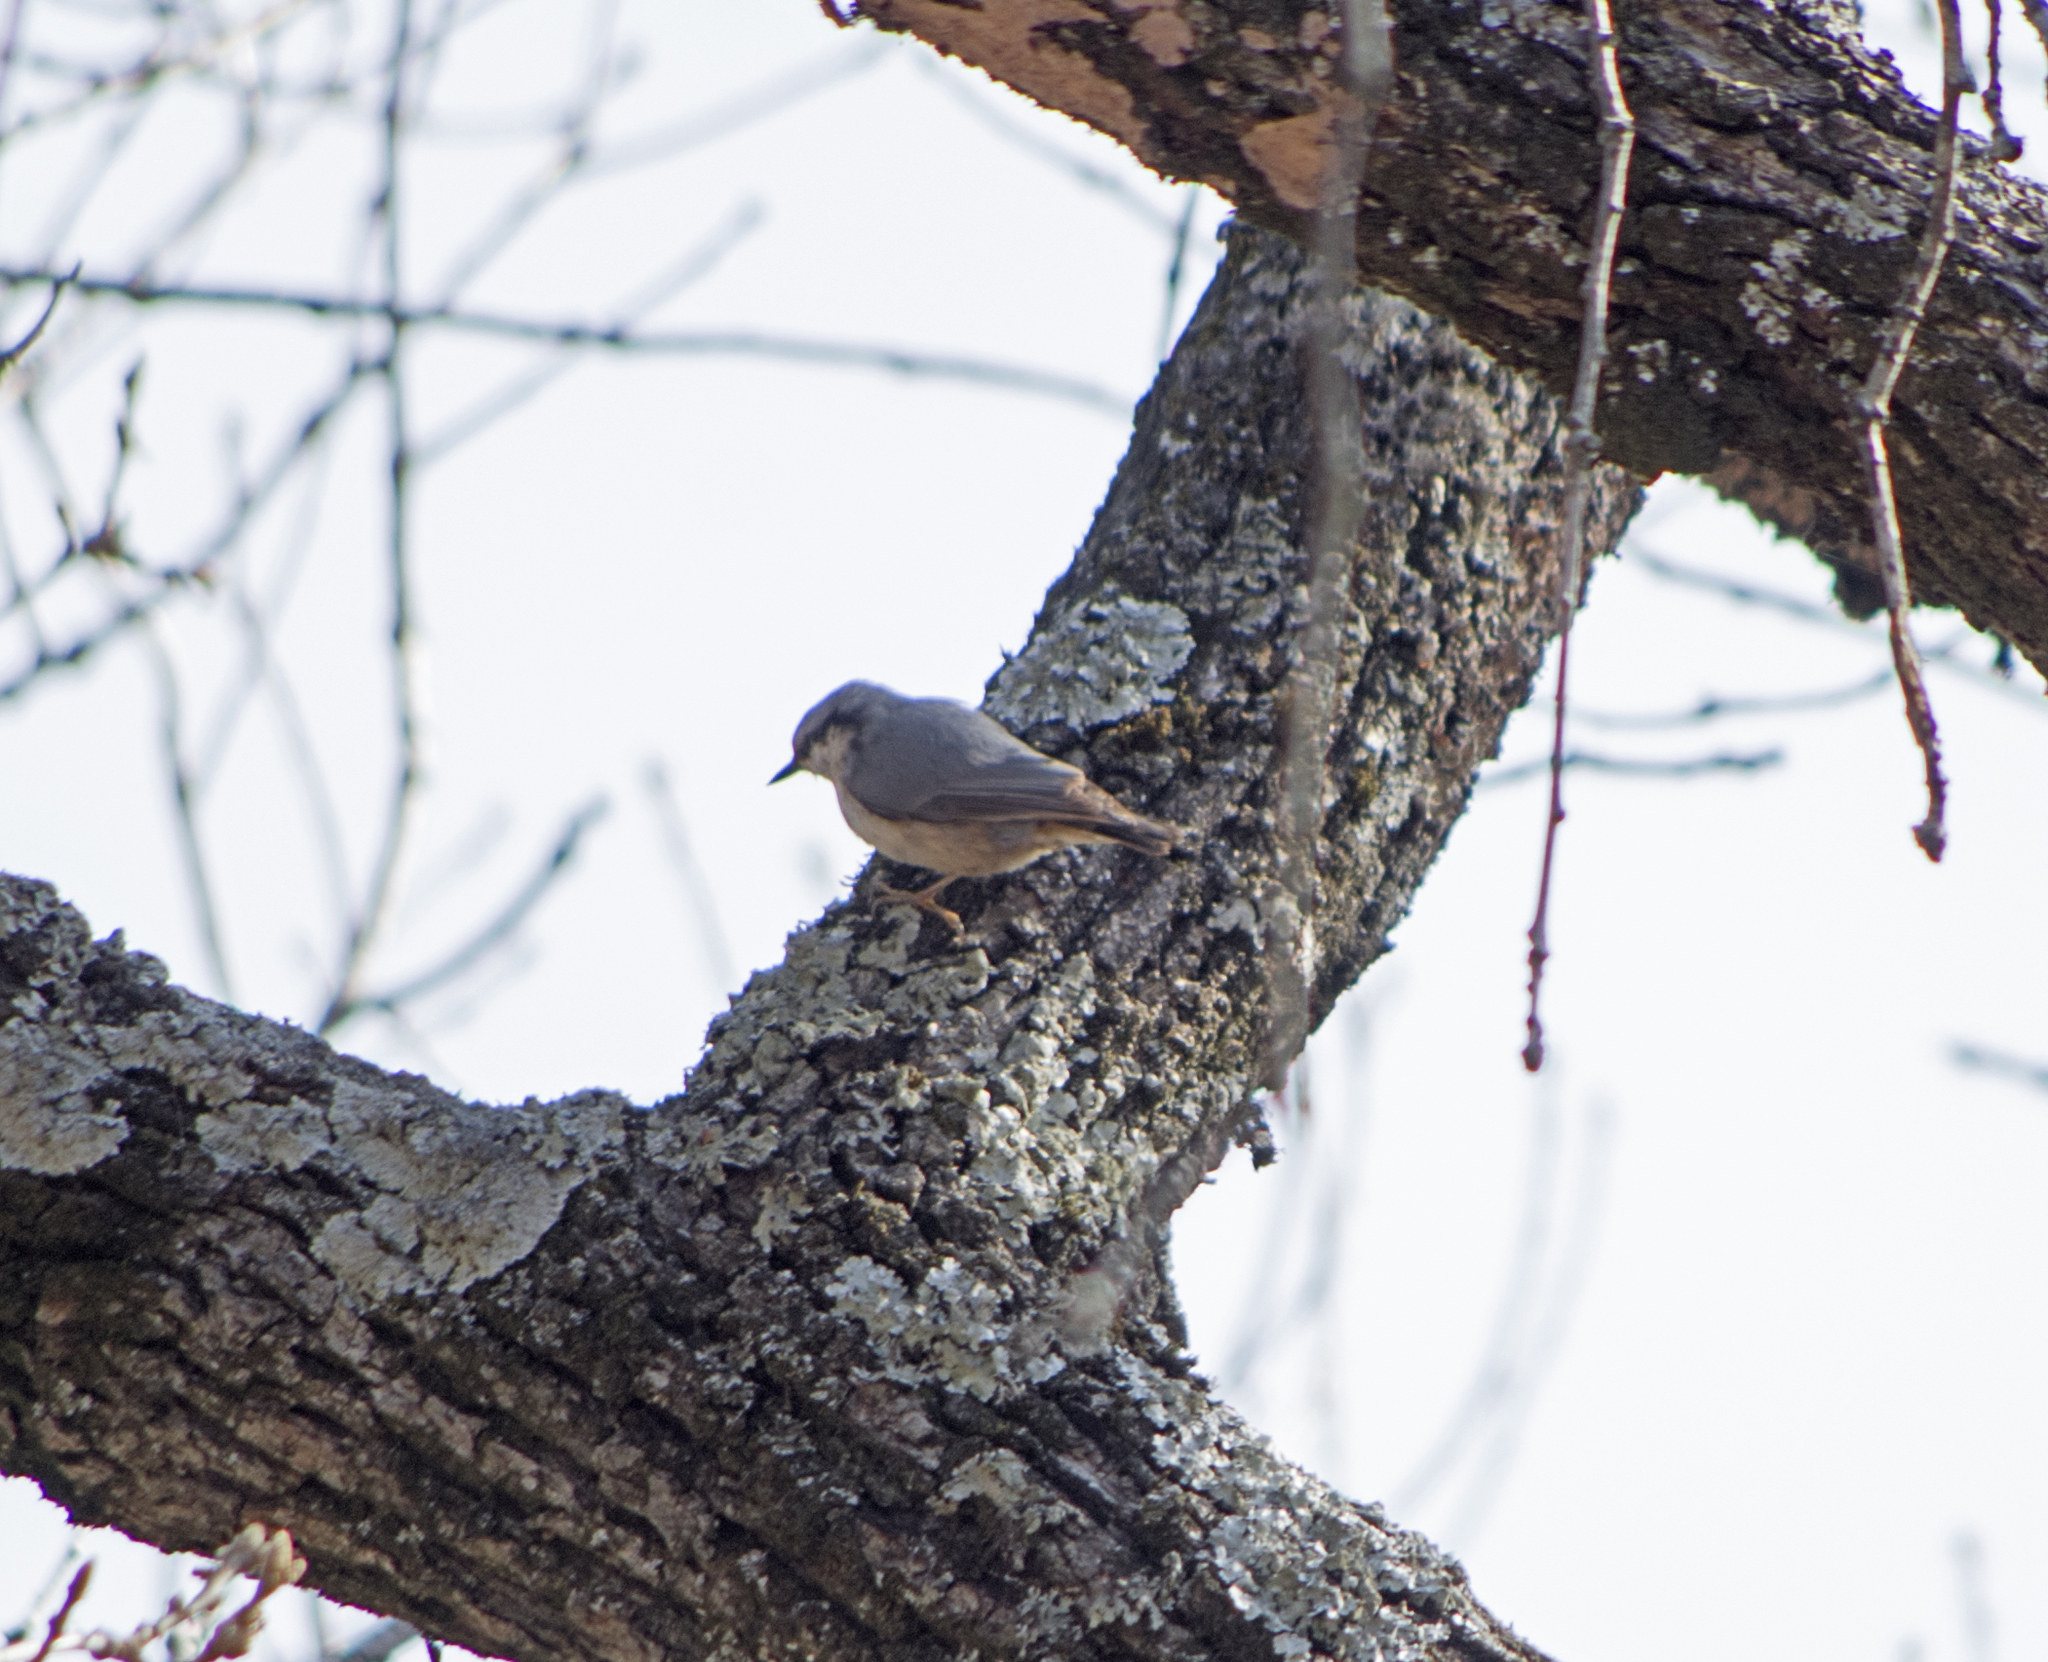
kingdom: Animalia
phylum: Chordata
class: Aves
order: Passeriformes
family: Sittidae
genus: Sitta
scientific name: Sitta europaea
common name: Eurasian nuthatch
